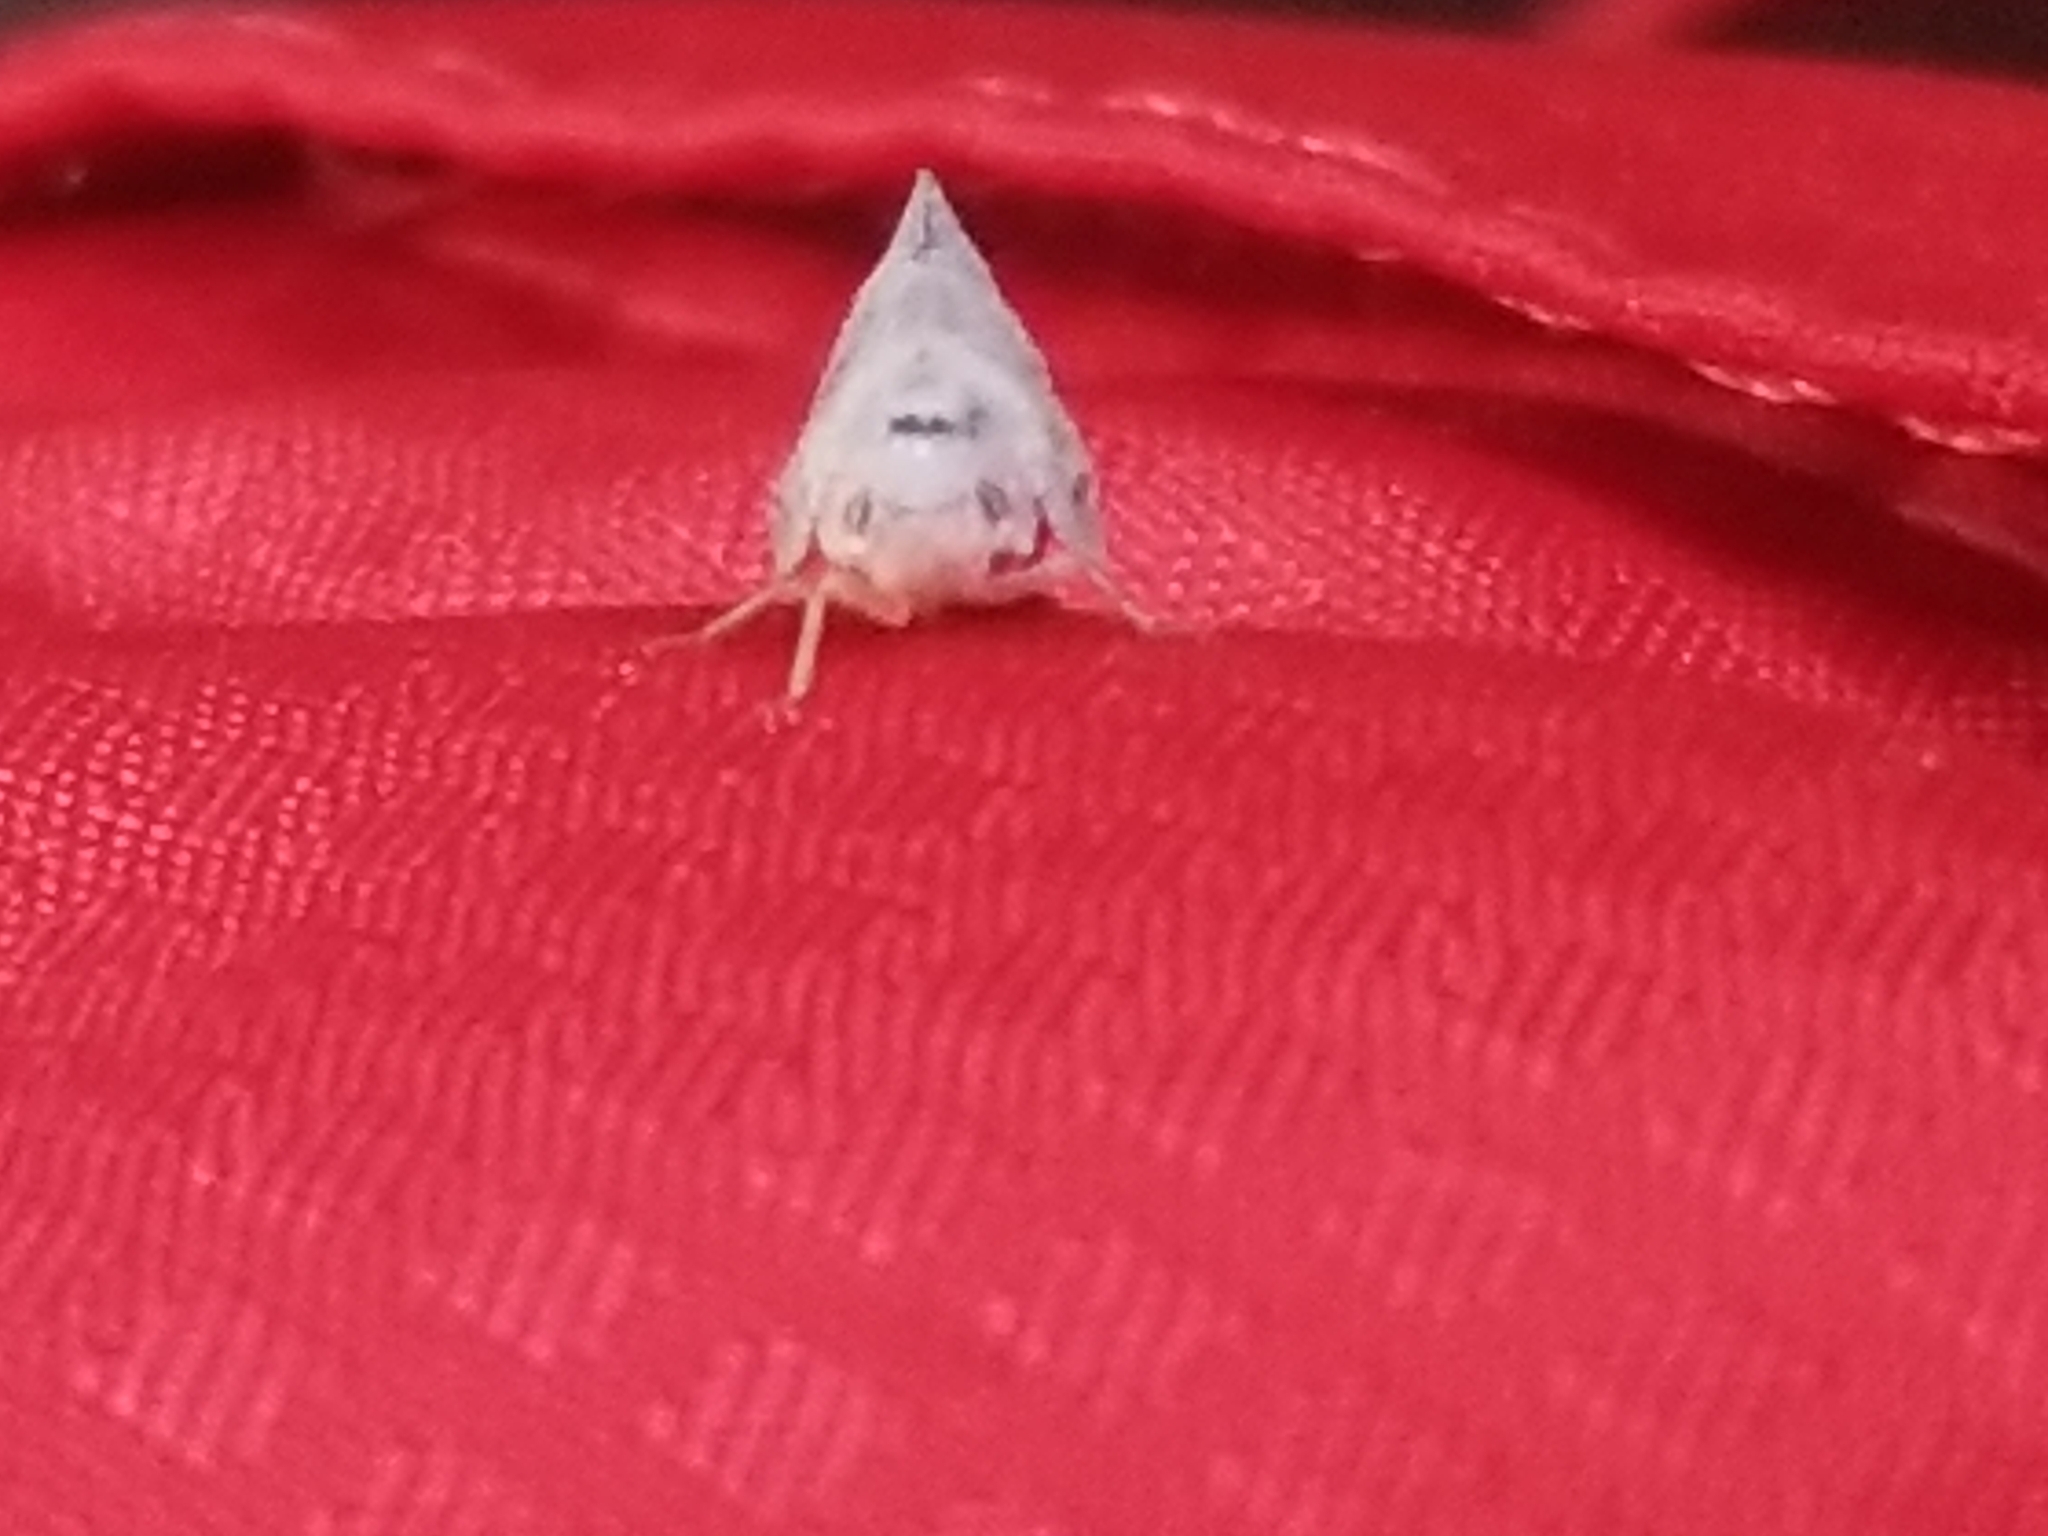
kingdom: Animalia
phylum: Arthropoda
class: Insecta
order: Hemiptera
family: Flatidae
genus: Metcalfa
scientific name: Metcalfa pruinosa
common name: Citrus flatid planthopper
